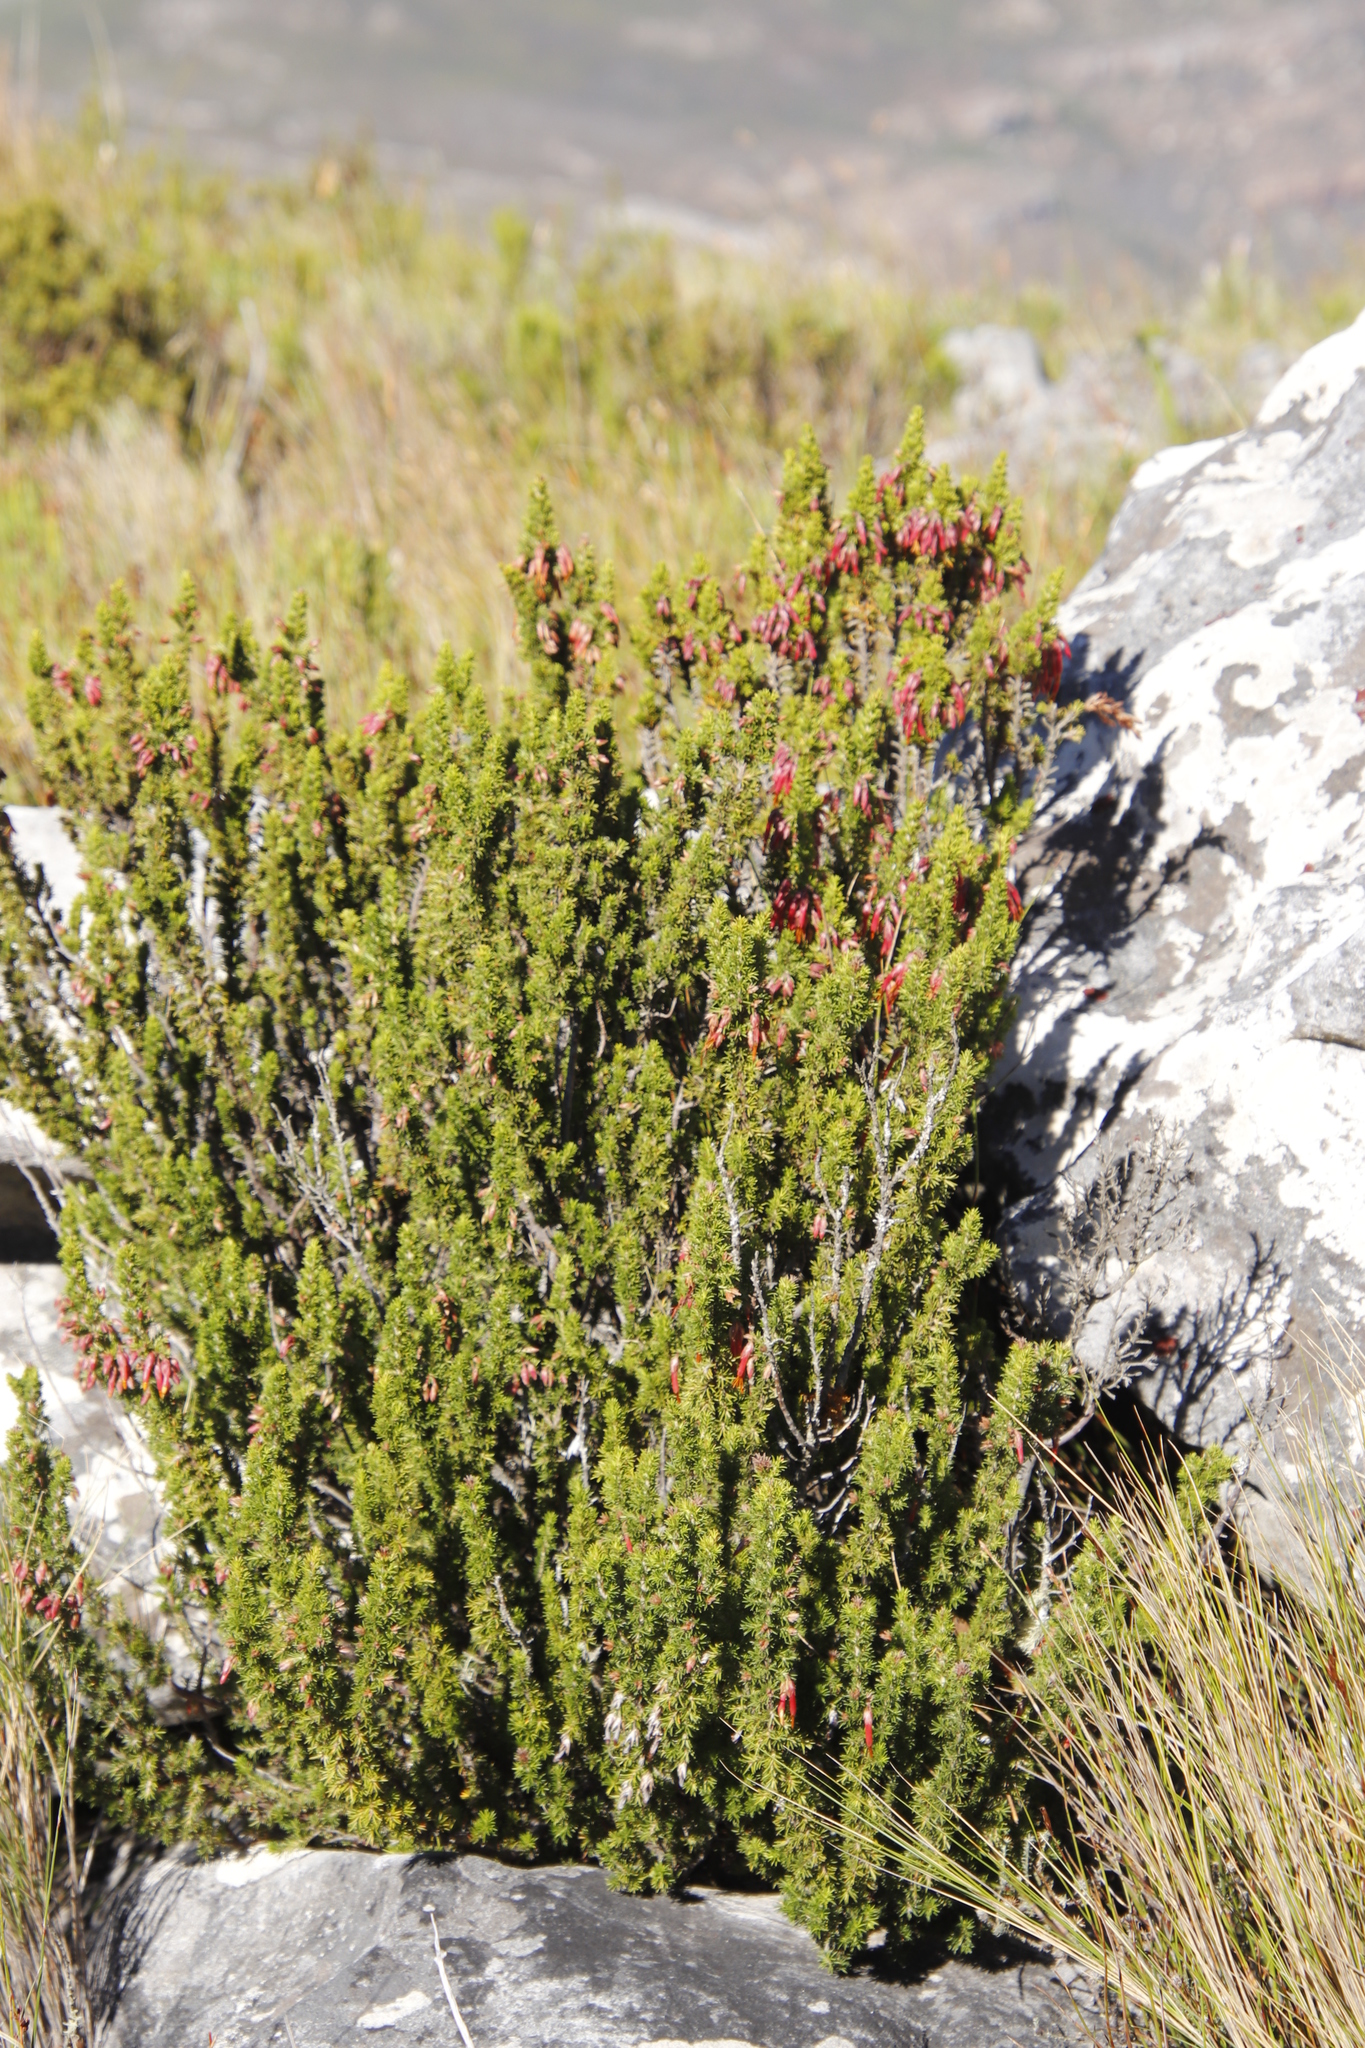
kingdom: Plantae
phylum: Tracheophyta
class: Magnoliopsida
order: Ericales
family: Ericaceae
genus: Erica
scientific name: Erica coccinea
